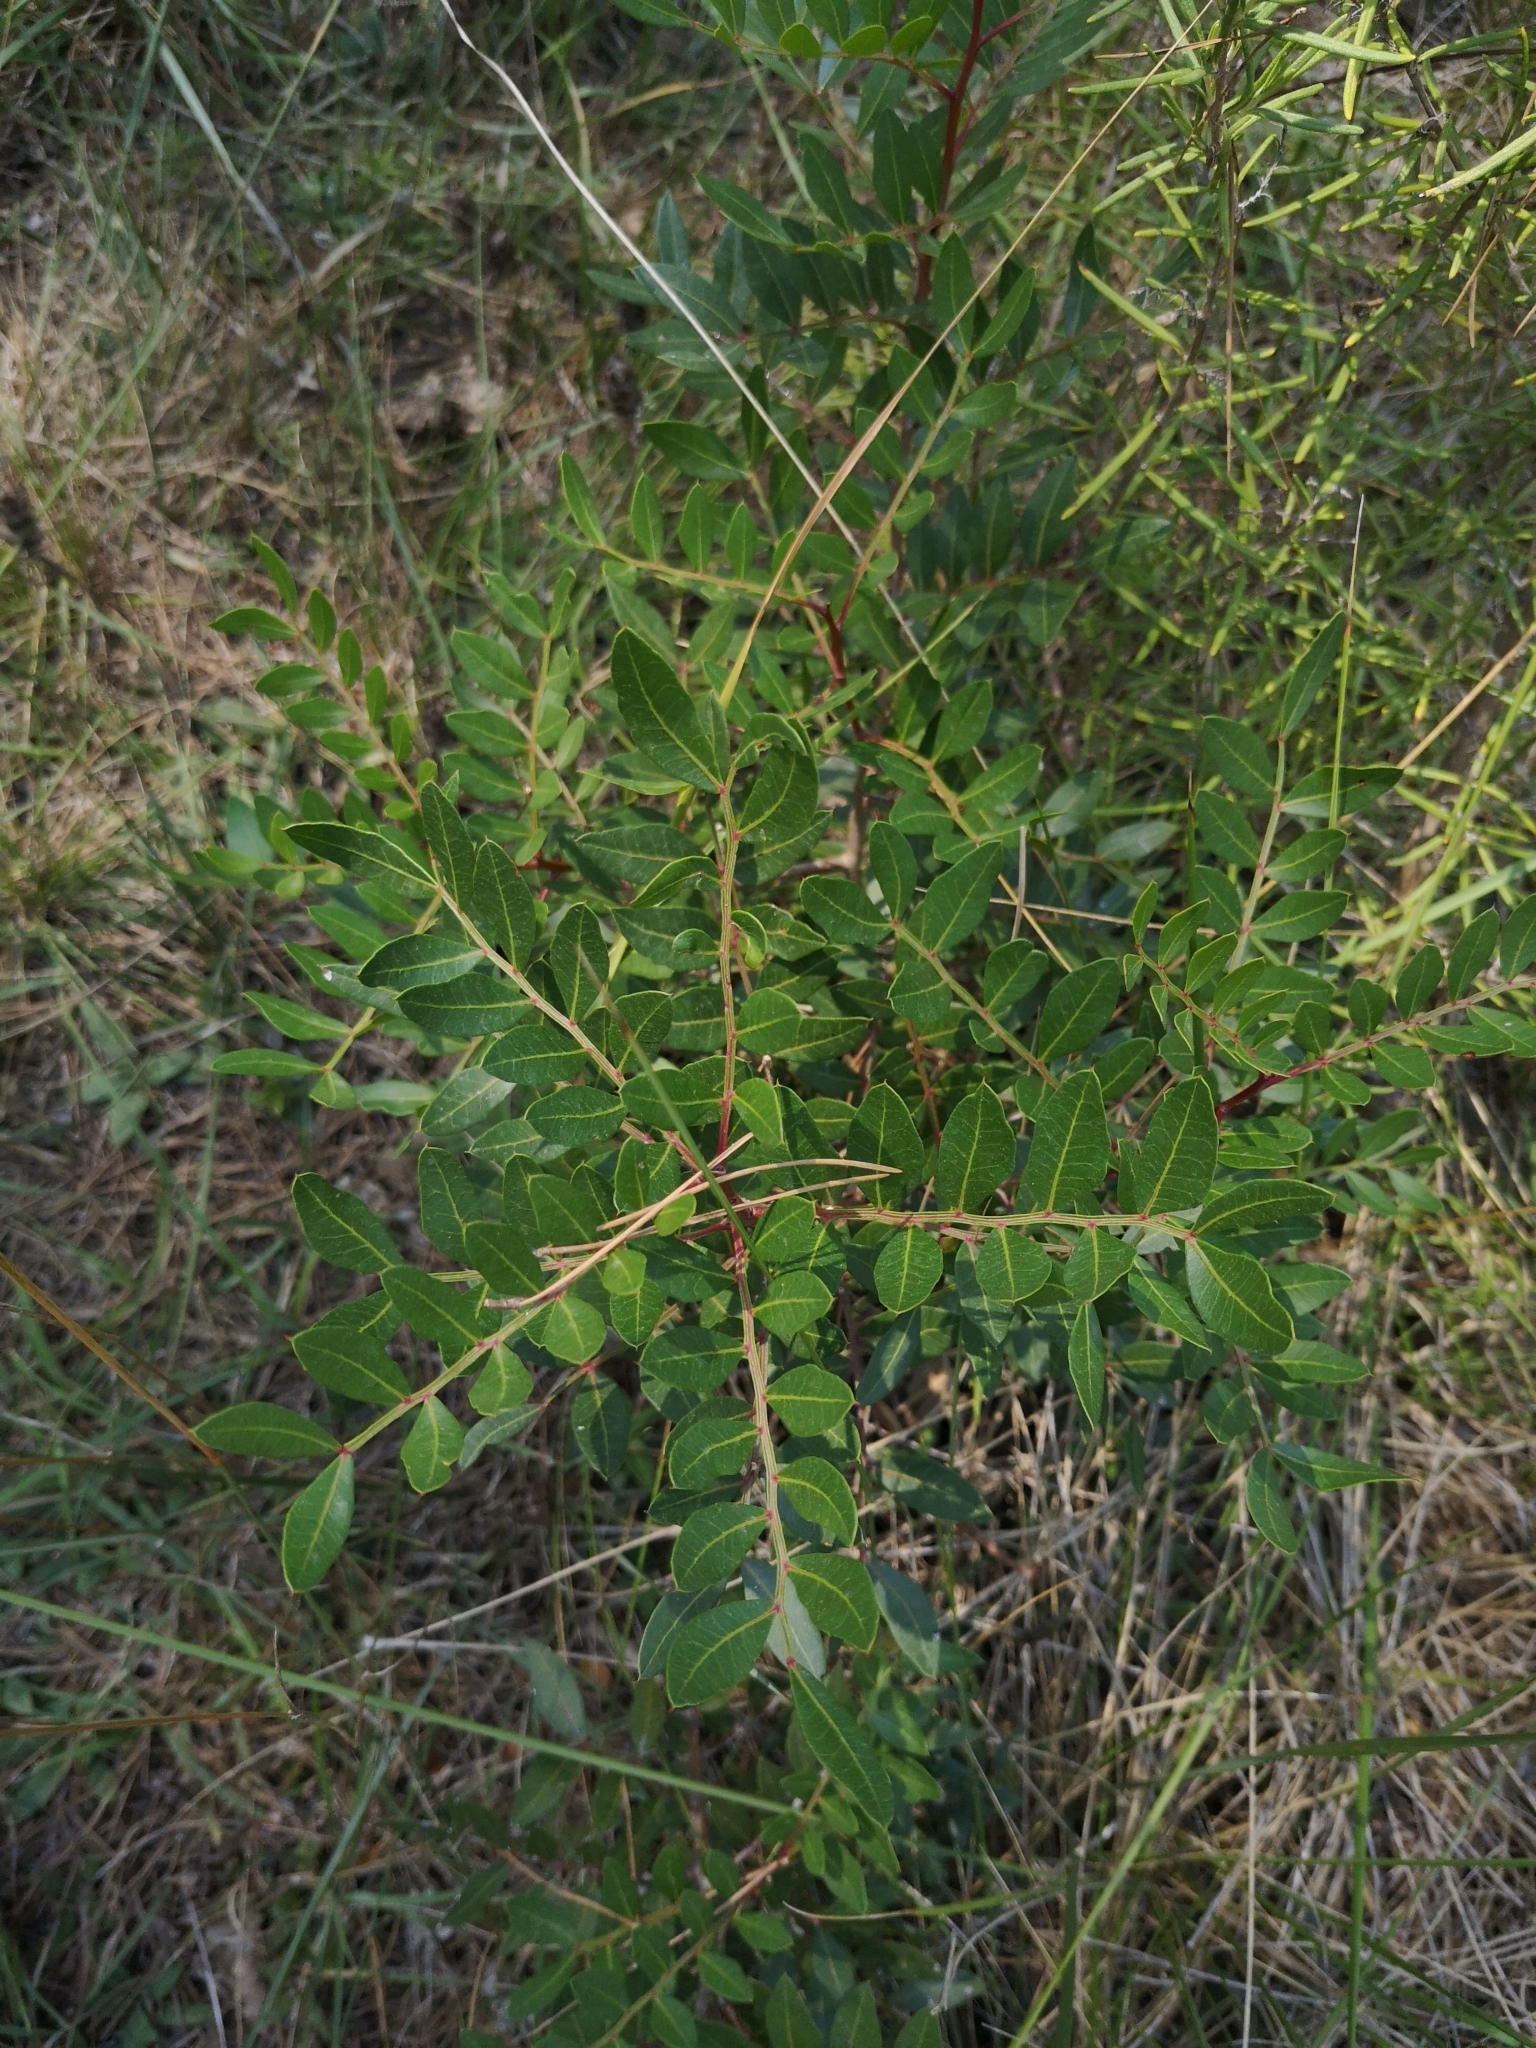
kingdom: Plantae
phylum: Tracheophyta
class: Magnoliopsida
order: Sapindales
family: Anacardiaceae
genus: Pistacia
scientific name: Pistacia lentiscus
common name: Lentisk
